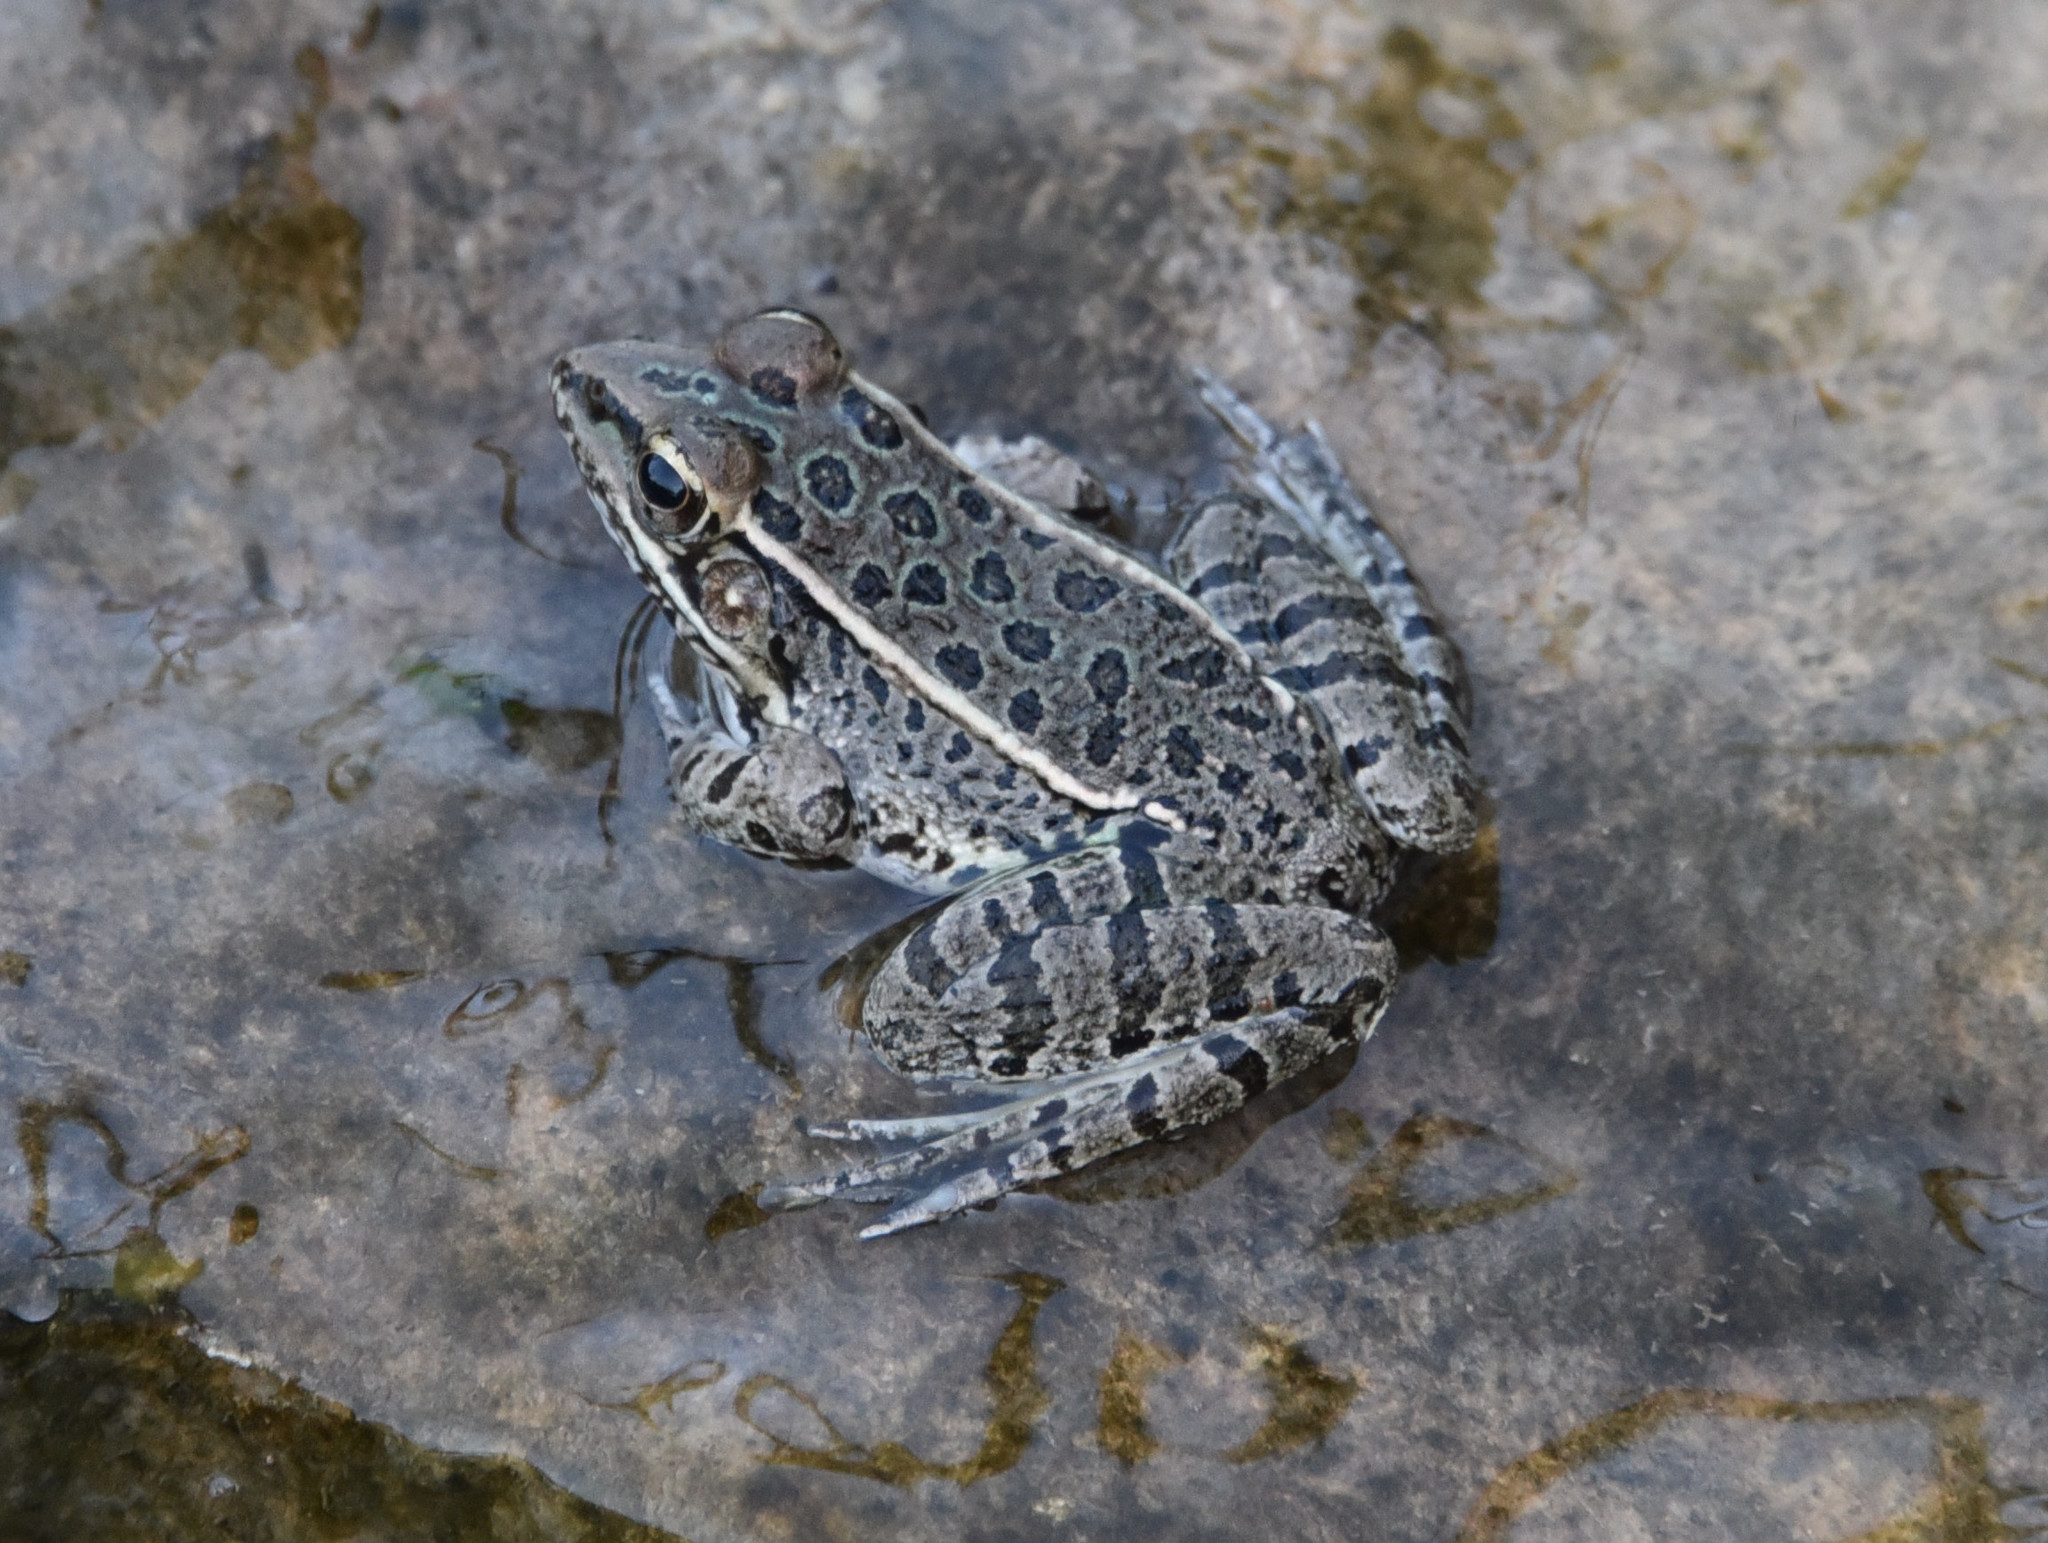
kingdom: Animalia
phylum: Chordata
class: Amphibia
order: Anura
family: Ranidae
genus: Lithobates
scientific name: Lithobates berlandieri
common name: Rio grande leopard frog
